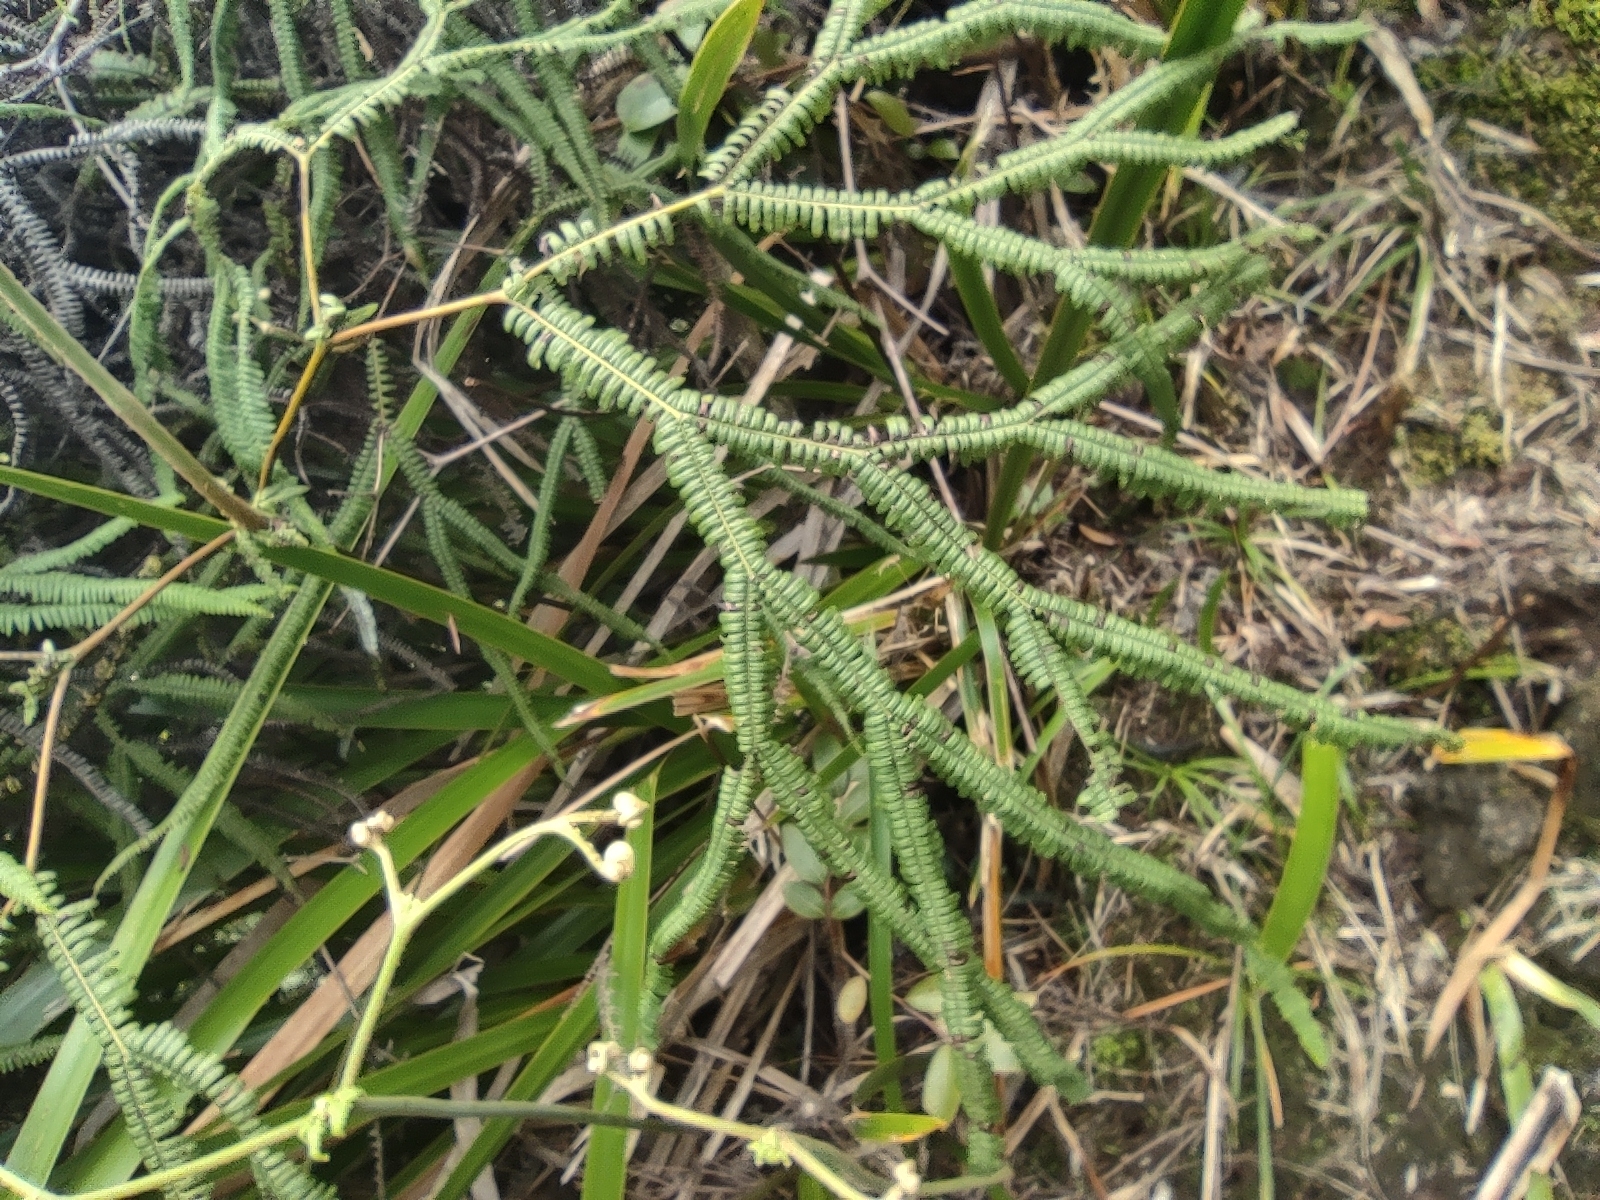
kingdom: Plantae
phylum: Tracheophyta
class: Polypodiopsida
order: Gleicheniales
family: Gleicheniaceae
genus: Sticherus
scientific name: Sticherus flagellaris
